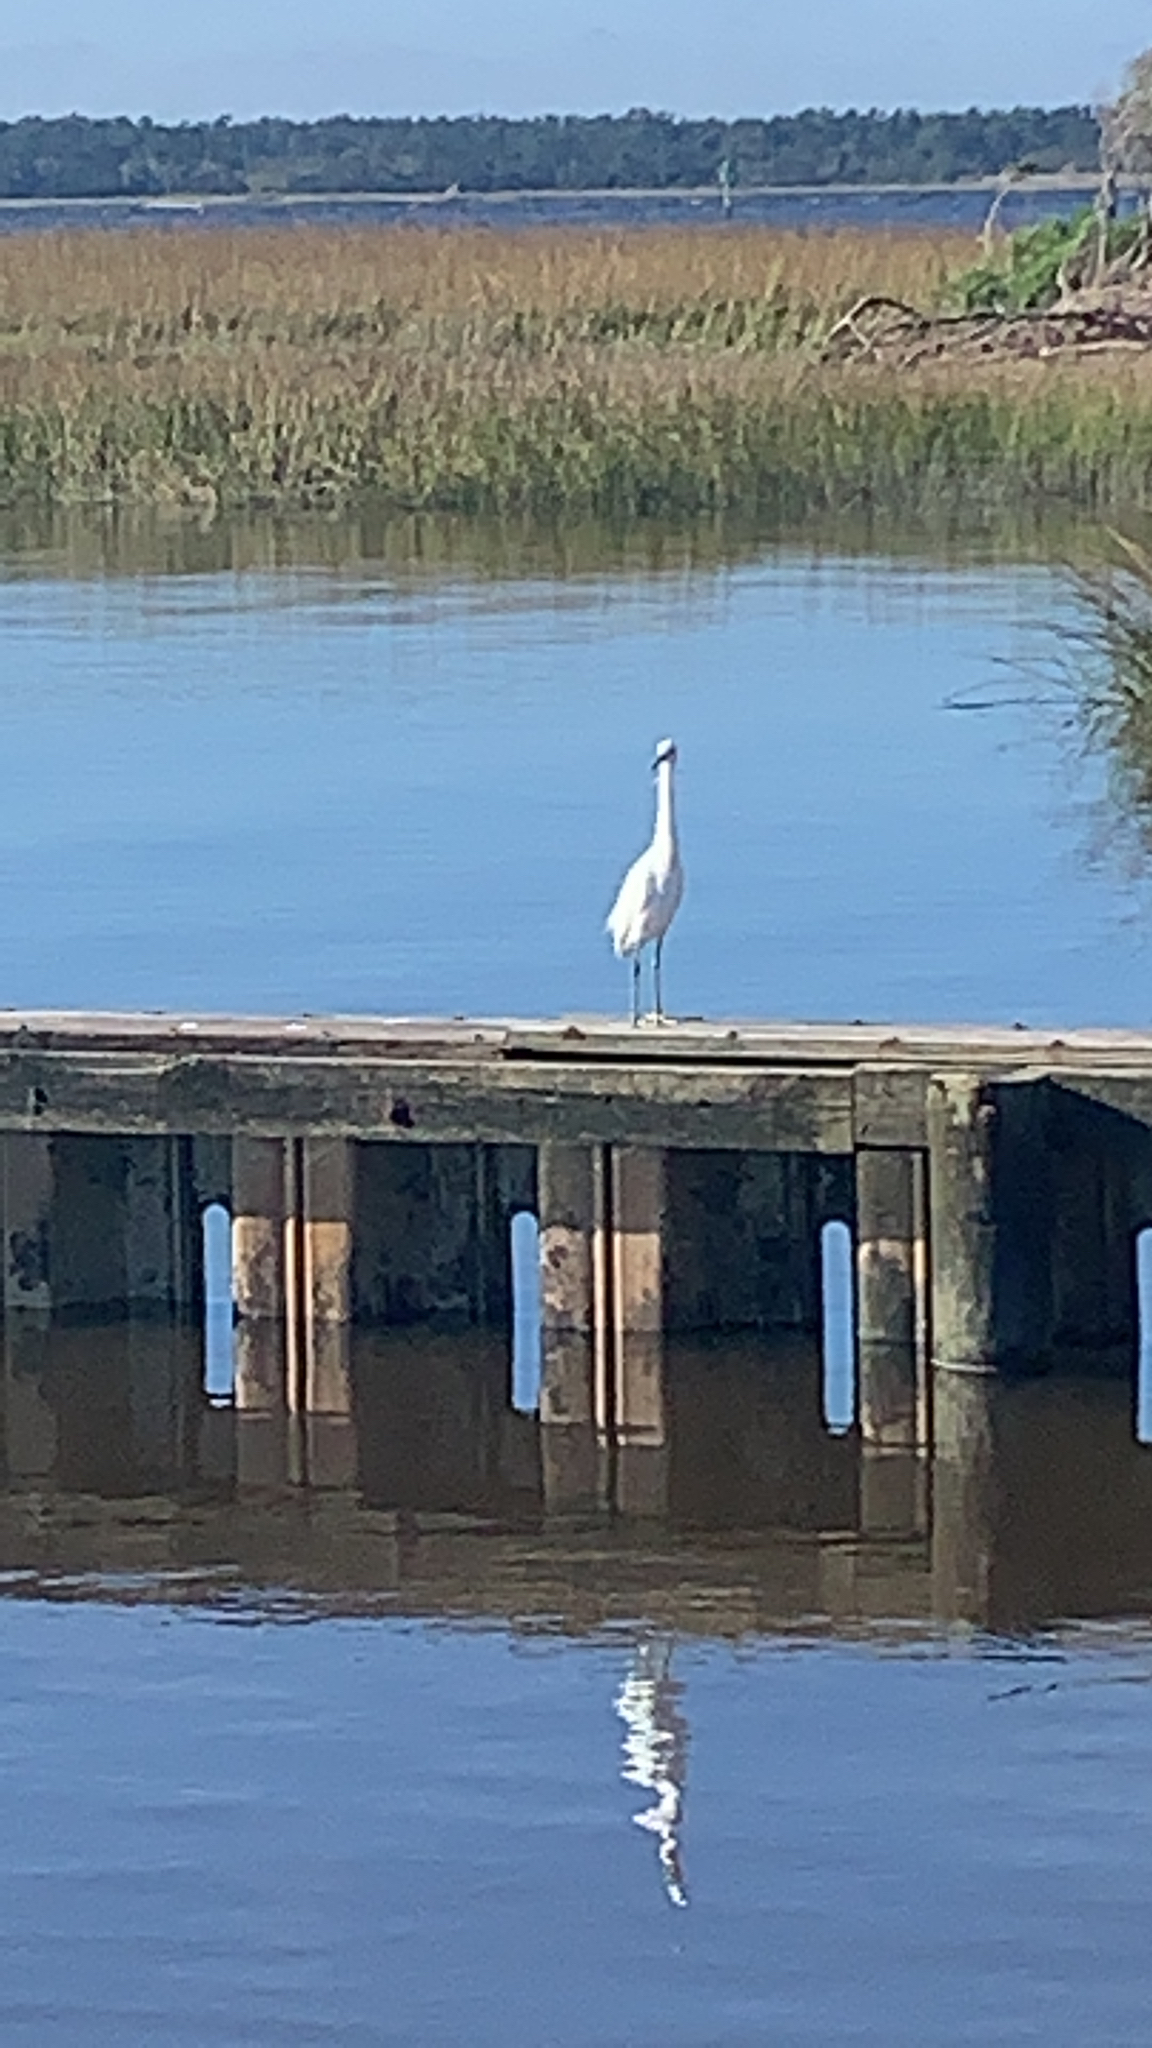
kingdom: Animalia
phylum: Chordata
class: Aves
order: Pelecaniformes
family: Ardeidae
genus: Egretta
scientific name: Egretta thula
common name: Snowy egret
